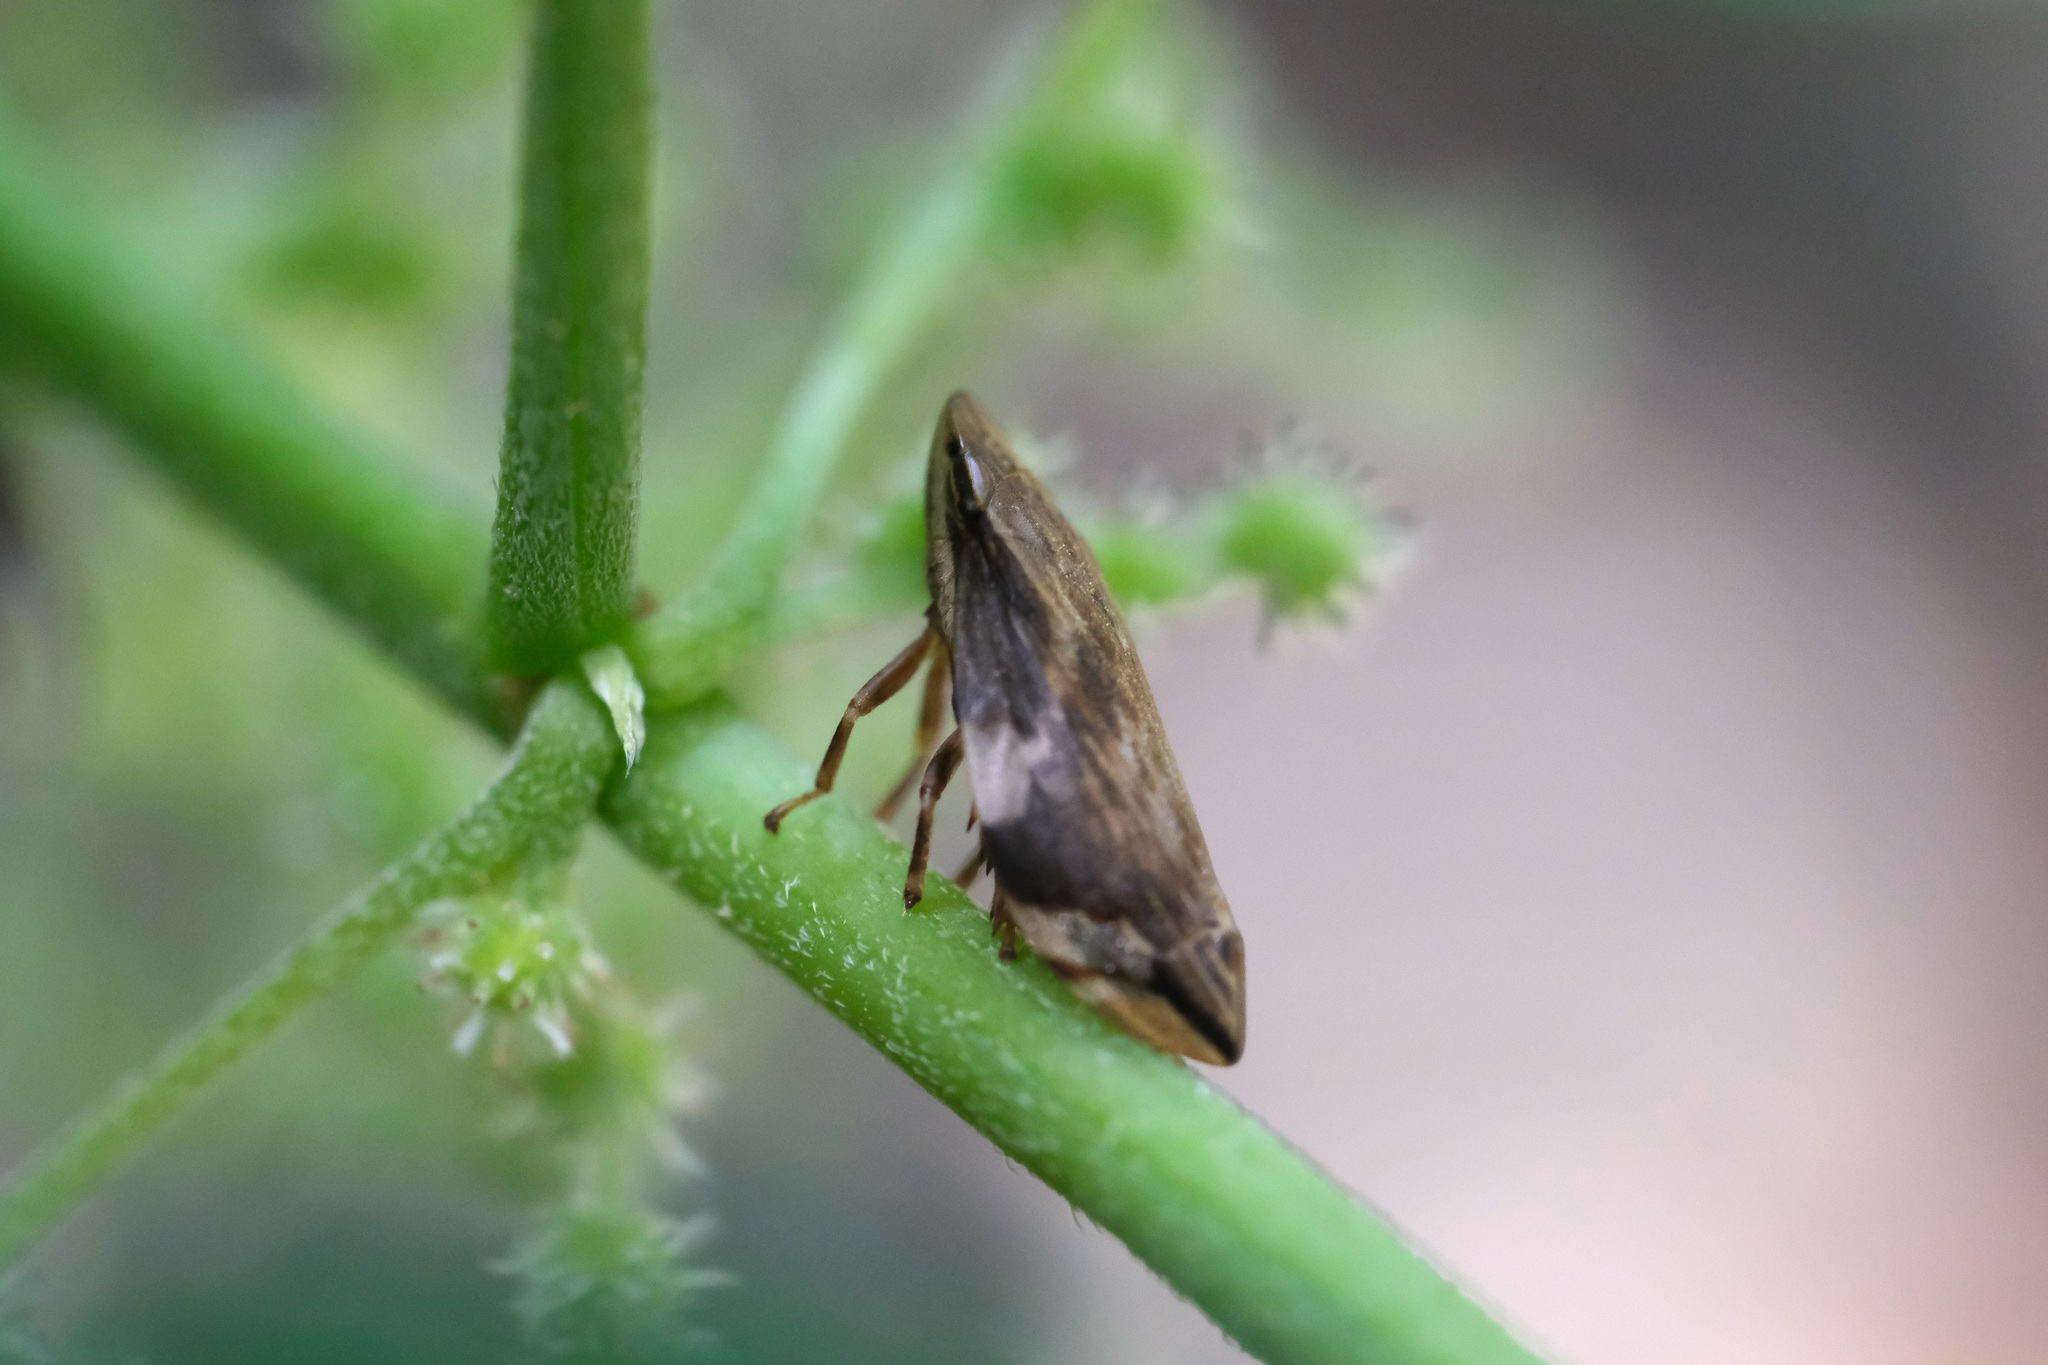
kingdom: Animalia
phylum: Arthropoda
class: Insecta
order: Hemiptera
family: Aphrophoridae
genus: Clovia
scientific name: Clovia conifera
